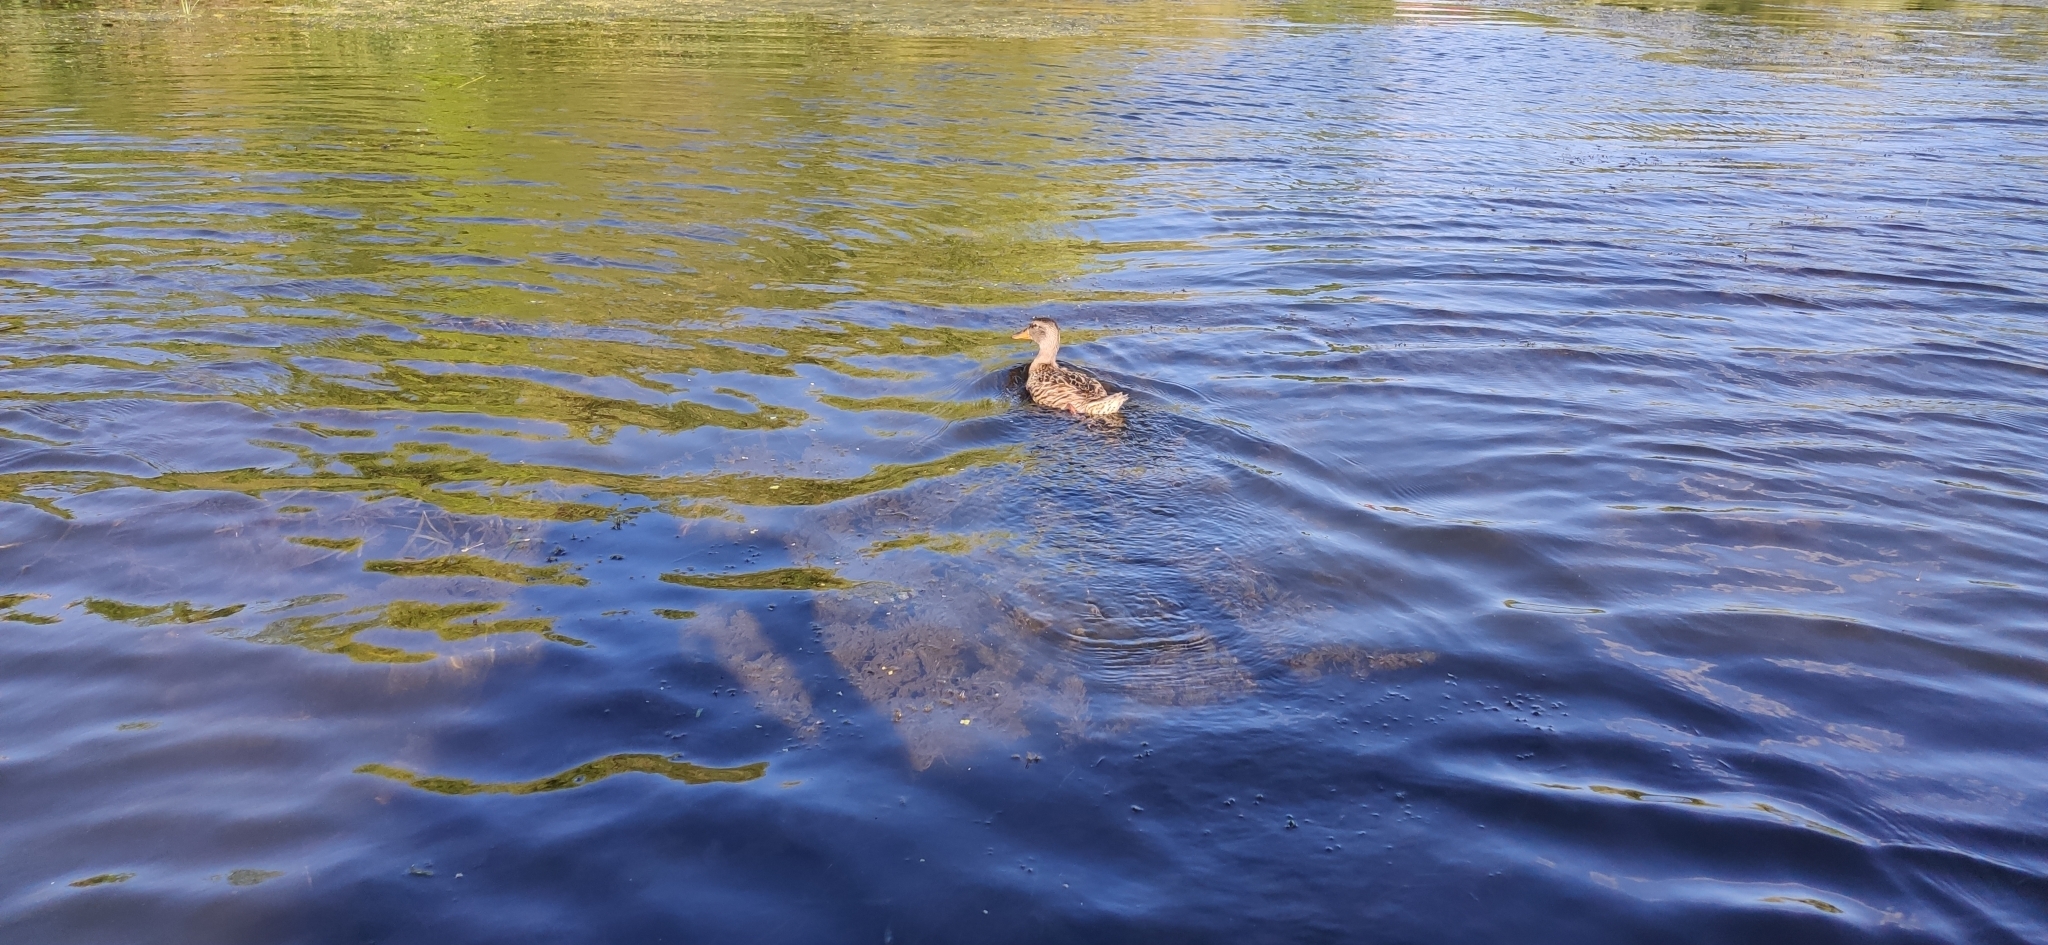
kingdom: Animalia
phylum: Chordata
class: Aves
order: Anseriformes
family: Anatidae
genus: Anas
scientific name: Anas platyrhynchos
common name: Mallard
